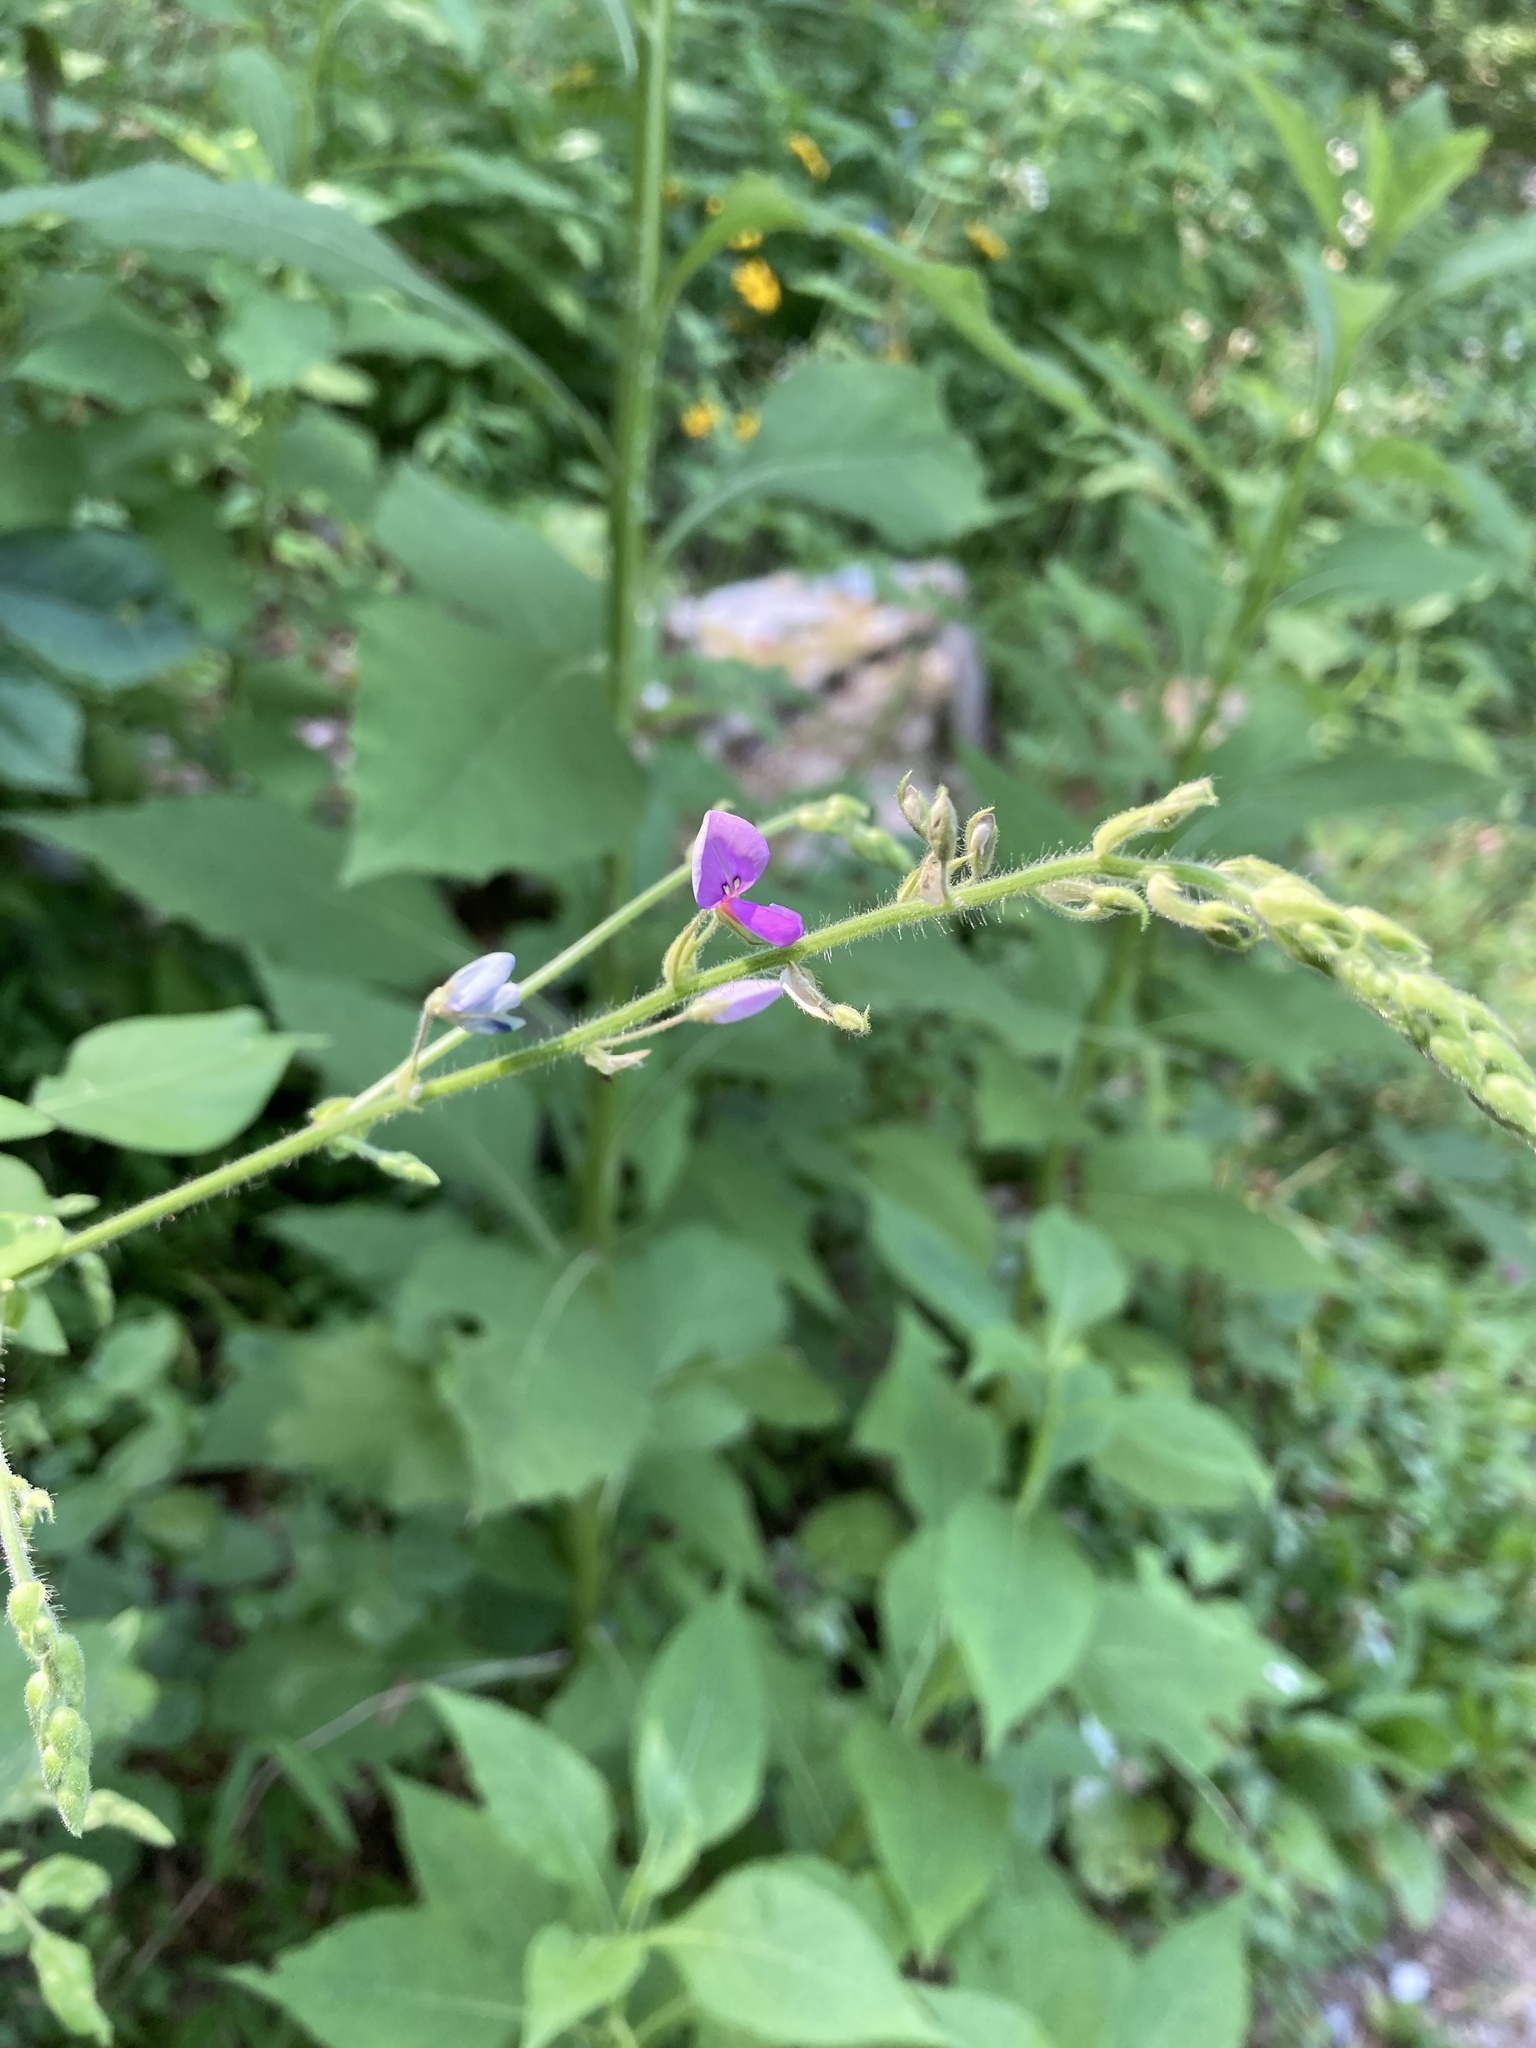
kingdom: Plantae
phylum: Tracheophyta
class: Magnoliopsida
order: Fabales
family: Fabaceae
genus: Desmodium
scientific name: Desmodium canescens
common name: Hoary tick-clover
